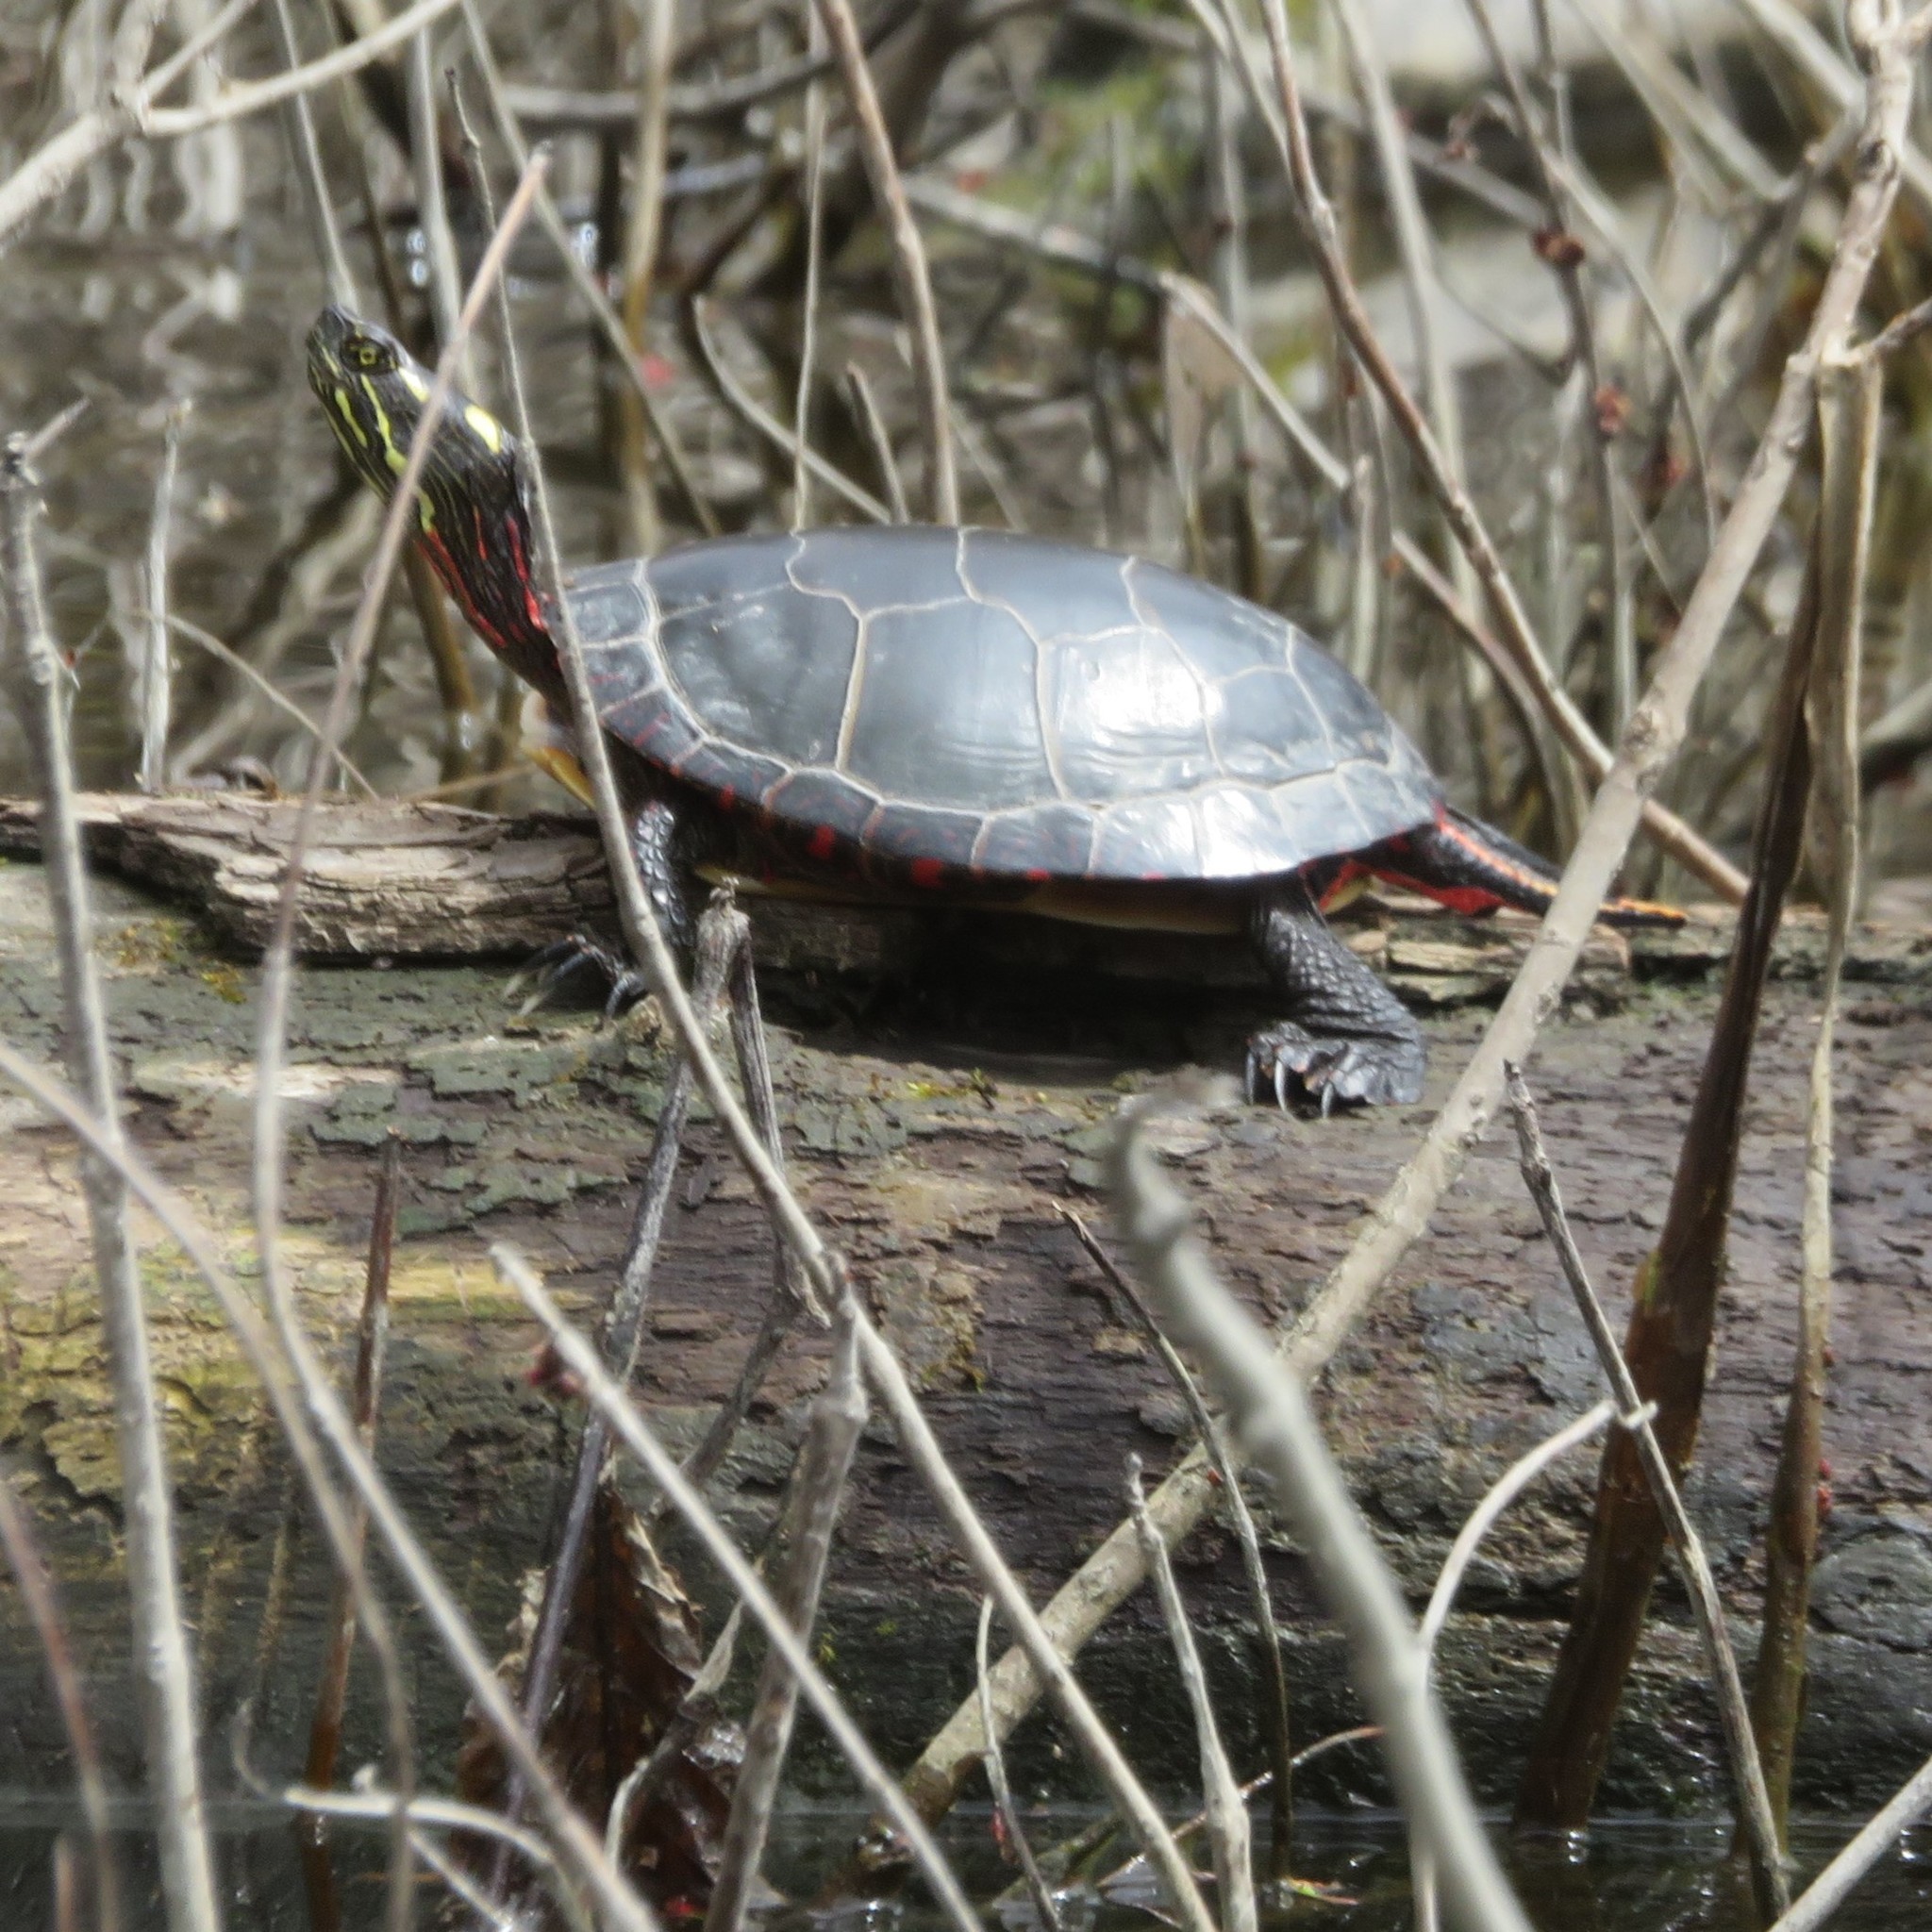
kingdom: Animalia
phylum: Chordata
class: Testudines
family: Emydidae
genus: Chrysemys
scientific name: Chrysemys picta
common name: Painted turtle
